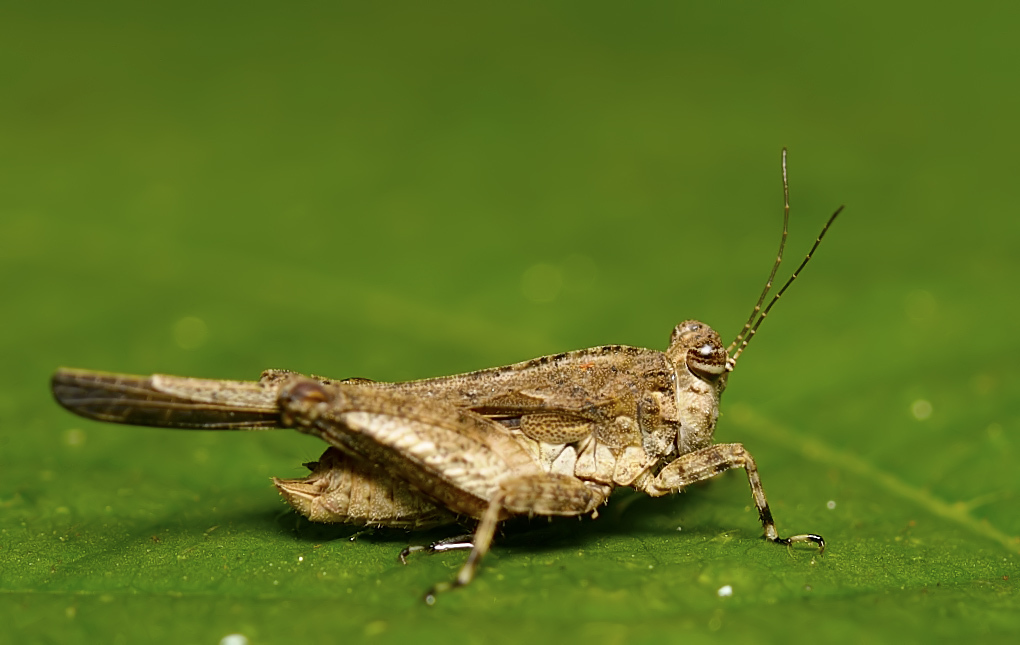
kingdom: Animalia
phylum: Arthropoda
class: Insecta
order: Orthoptera
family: Tetrigidae
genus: Paratettix
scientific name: Paratettix cingalensis
